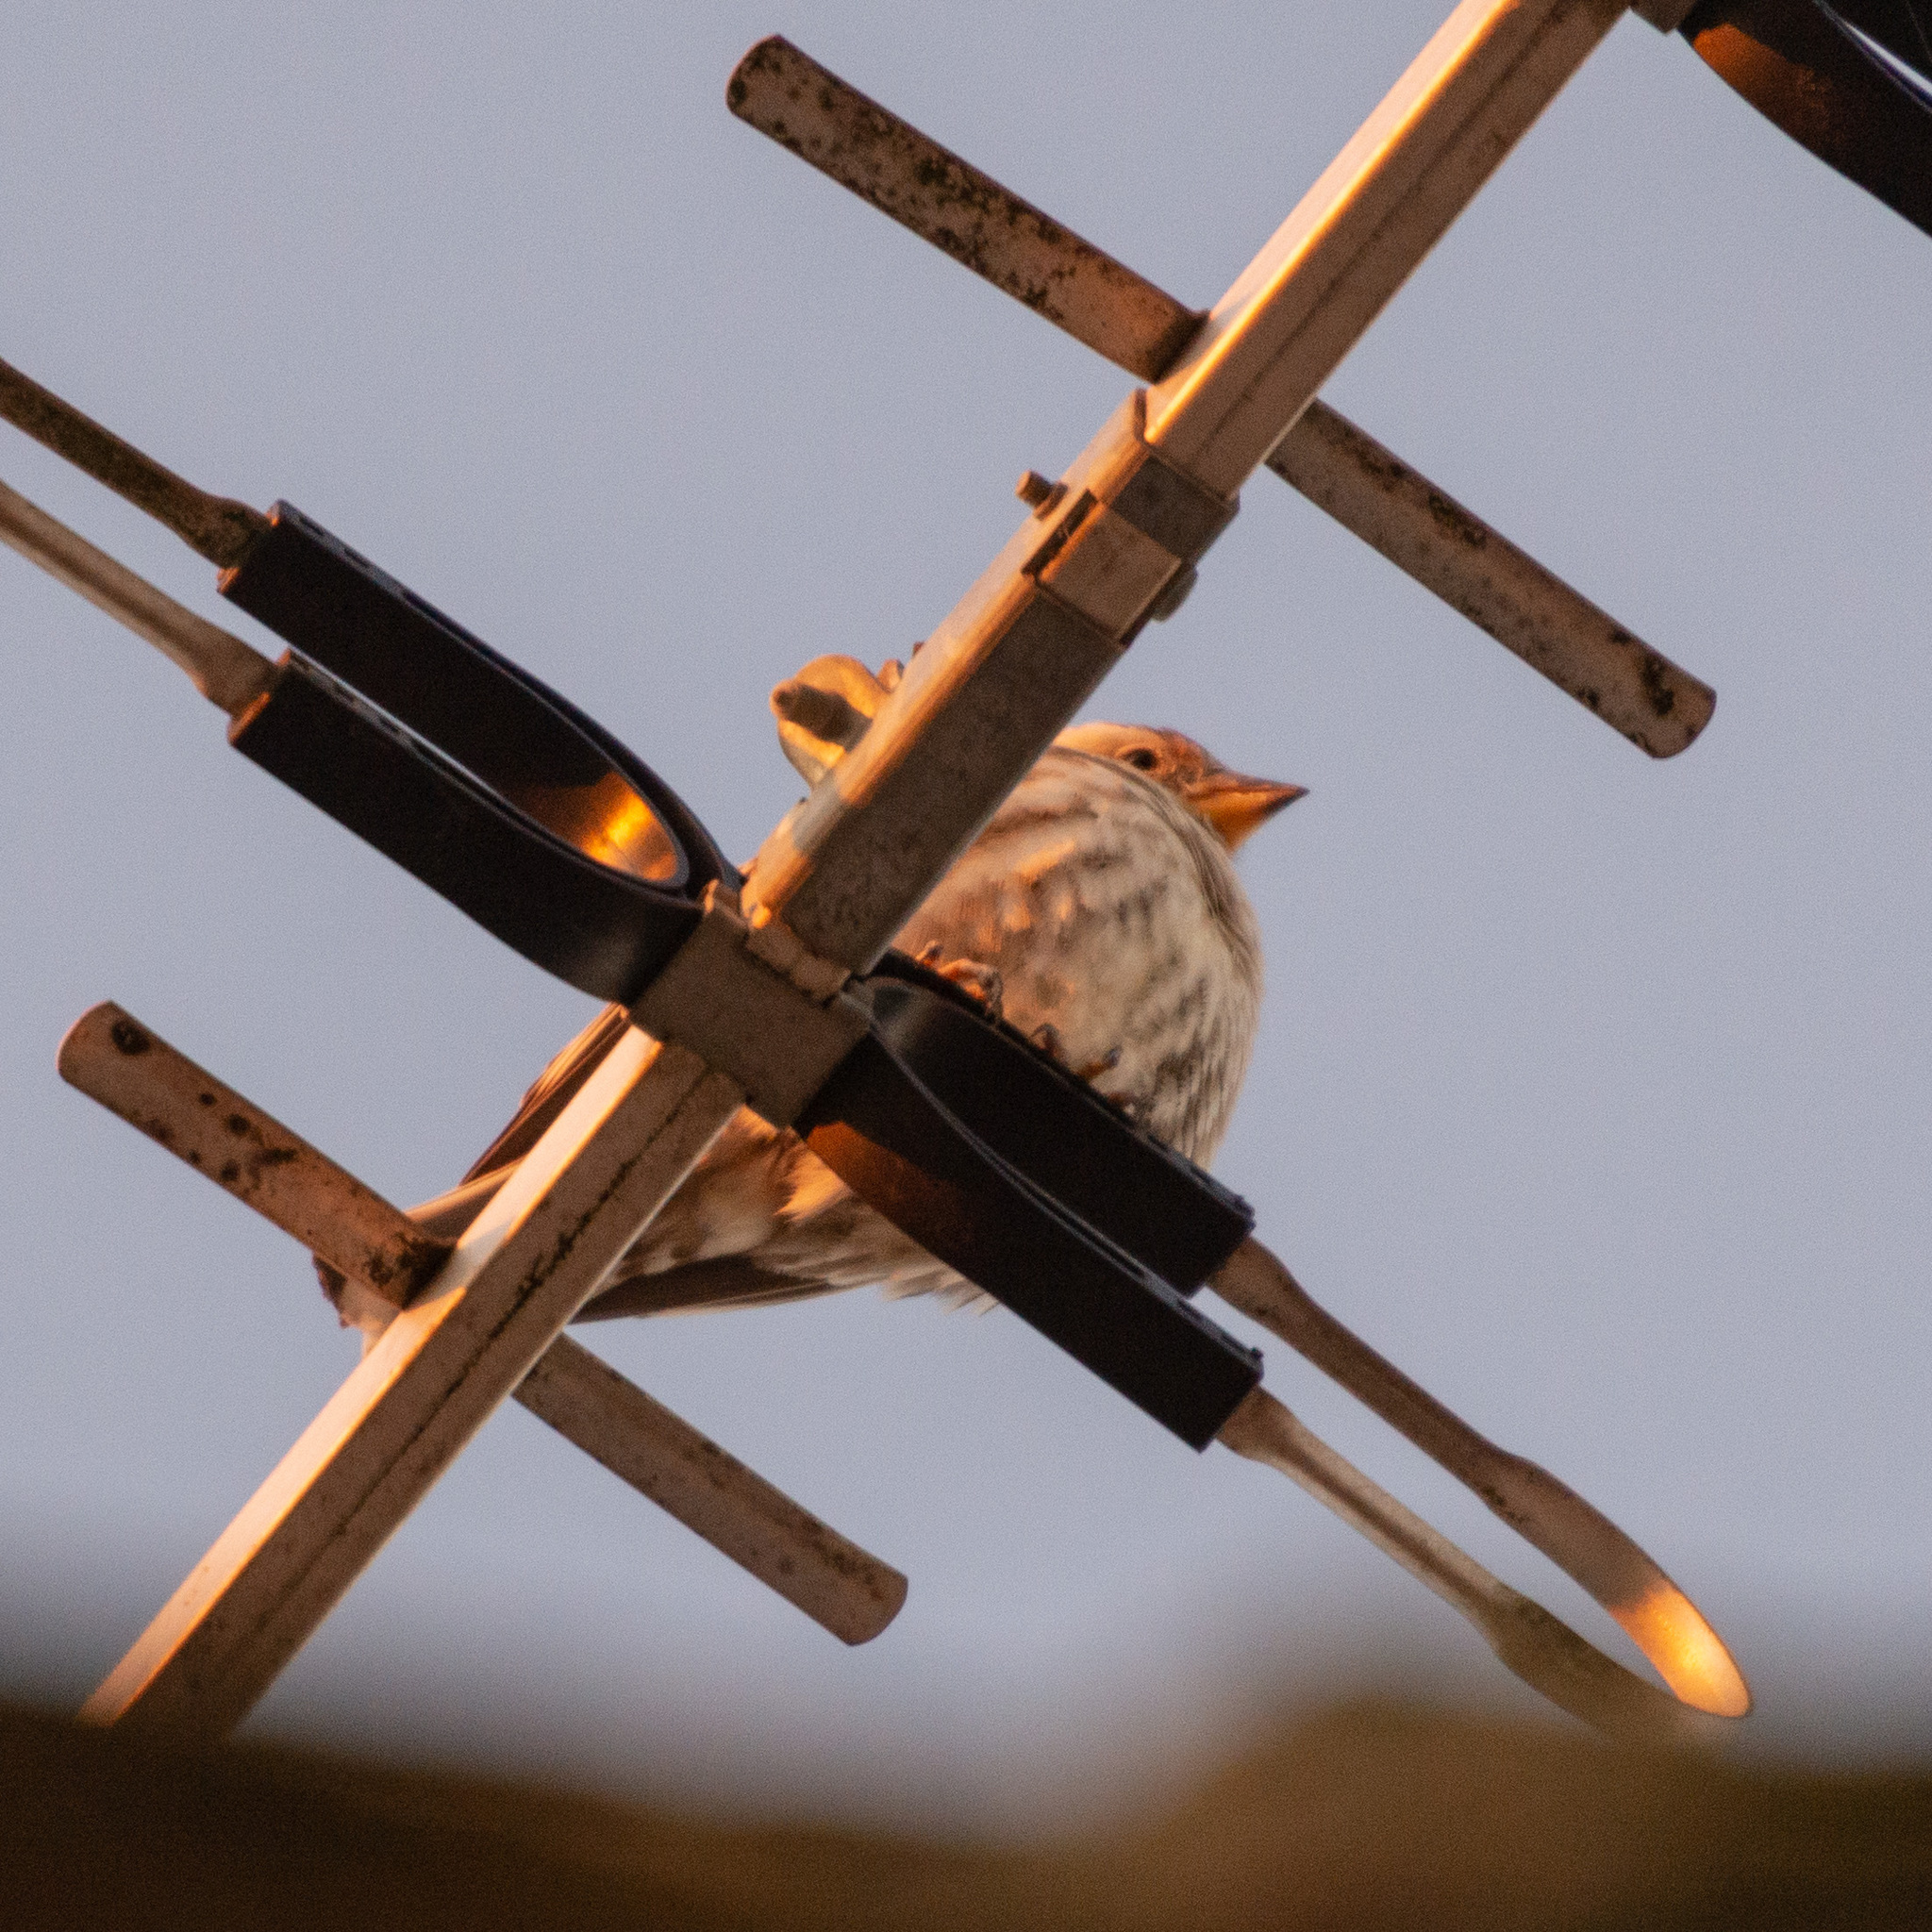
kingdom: Animalia
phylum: Chordata
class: Aves
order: Passeriformes
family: Passeridae
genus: Petronia
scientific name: Petronia petronia
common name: Rock sparrow
